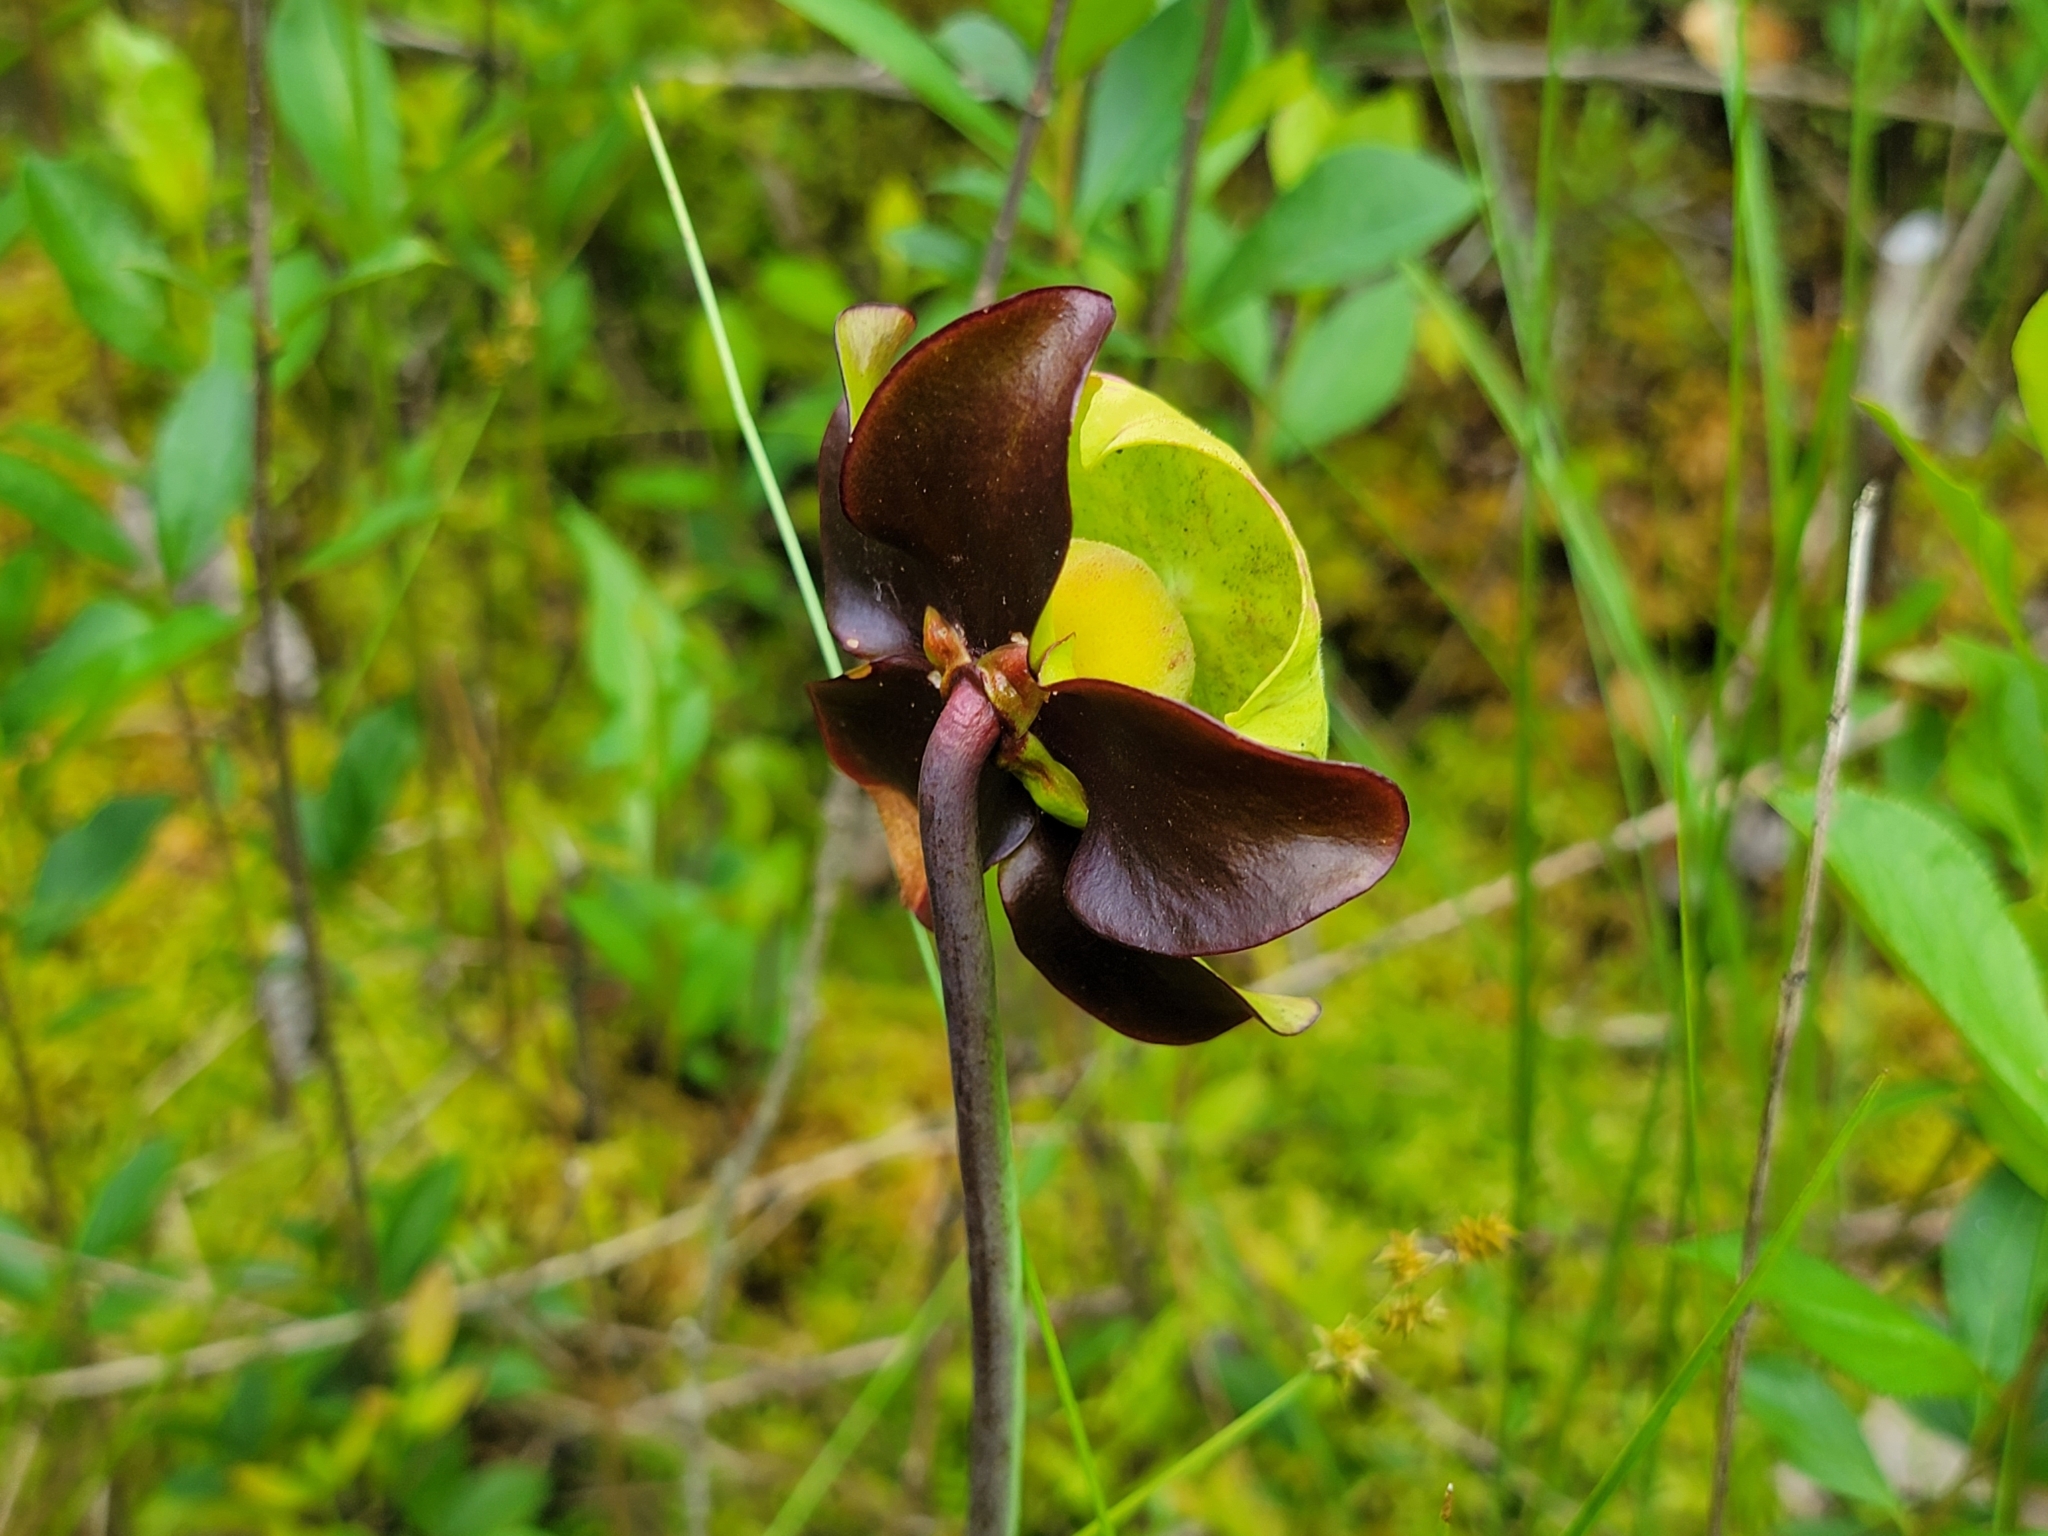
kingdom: Plantae
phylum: Tracheophyta
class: Magnoliopsida
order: Ericales
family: Sarraceniaceae
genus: Sarracenia
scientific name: Sarracenia purpurea
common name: Pitcherplant
